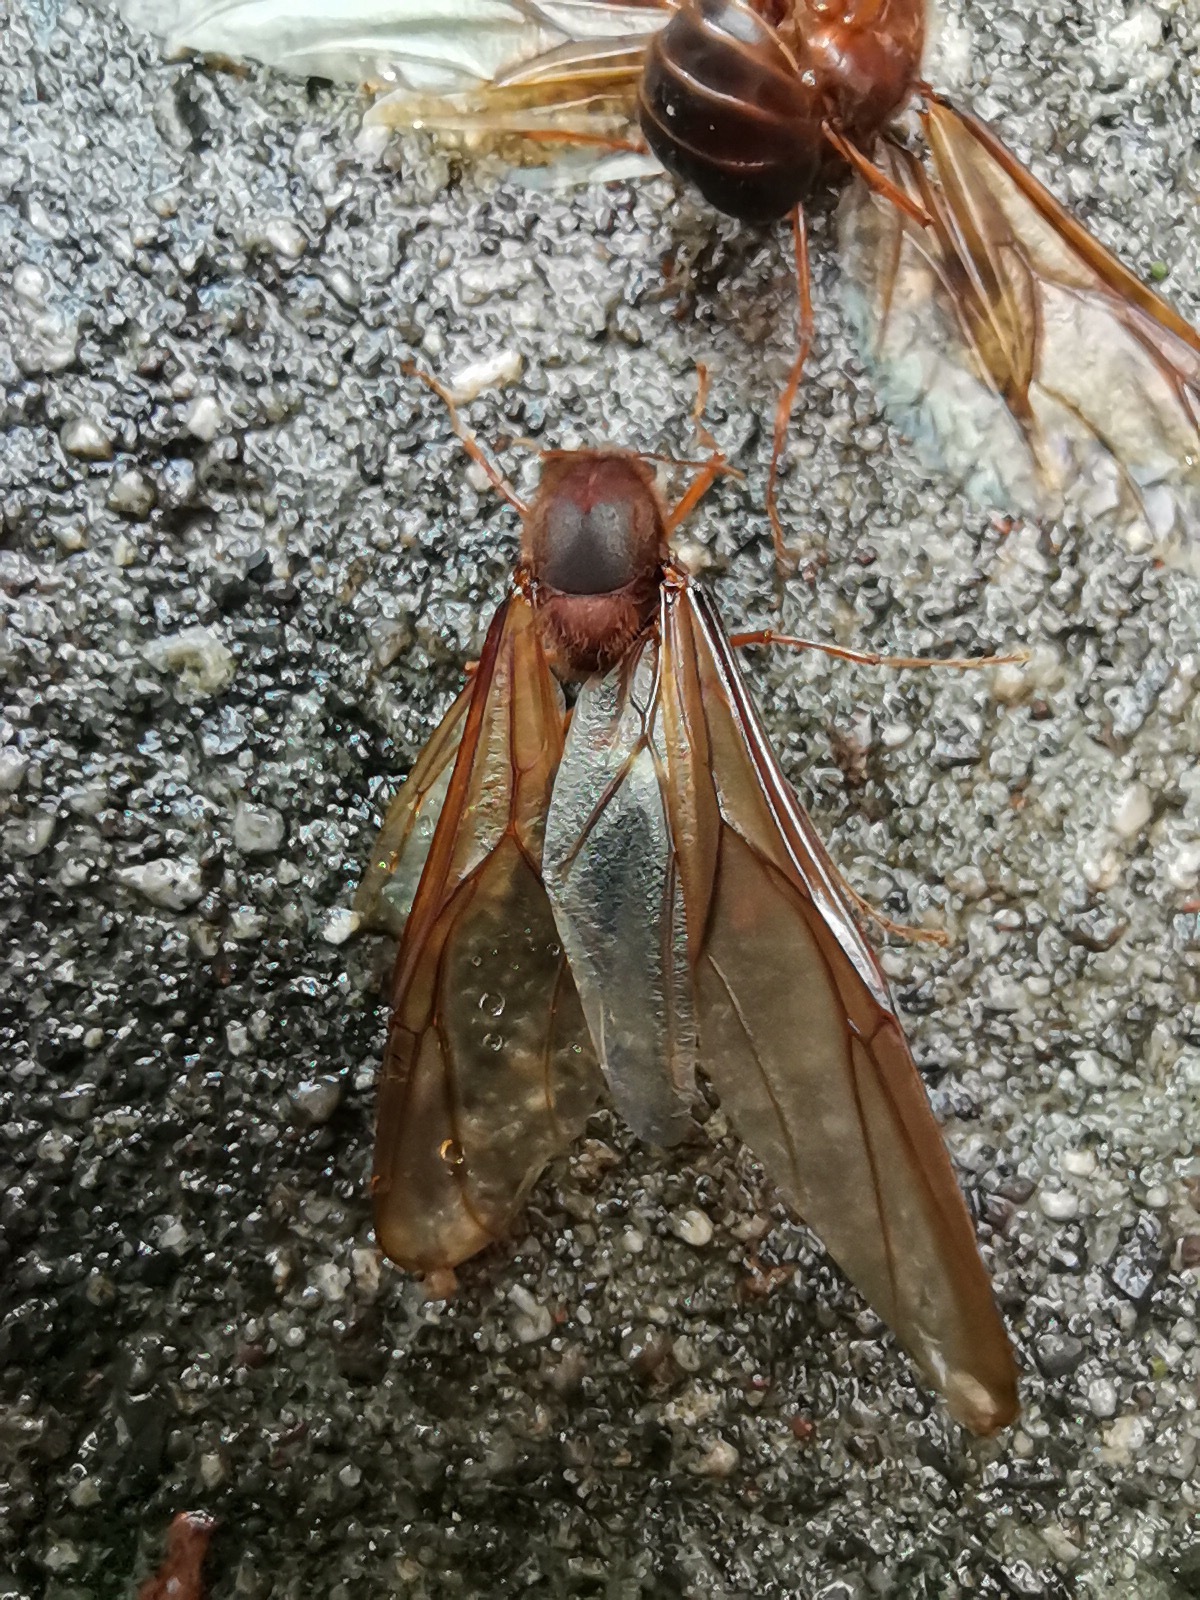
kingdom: Animalia
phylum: Arthropoda
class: Insecta
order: Hymenoptera
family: Formicidae
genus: Atta
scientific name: Atta mexicana
